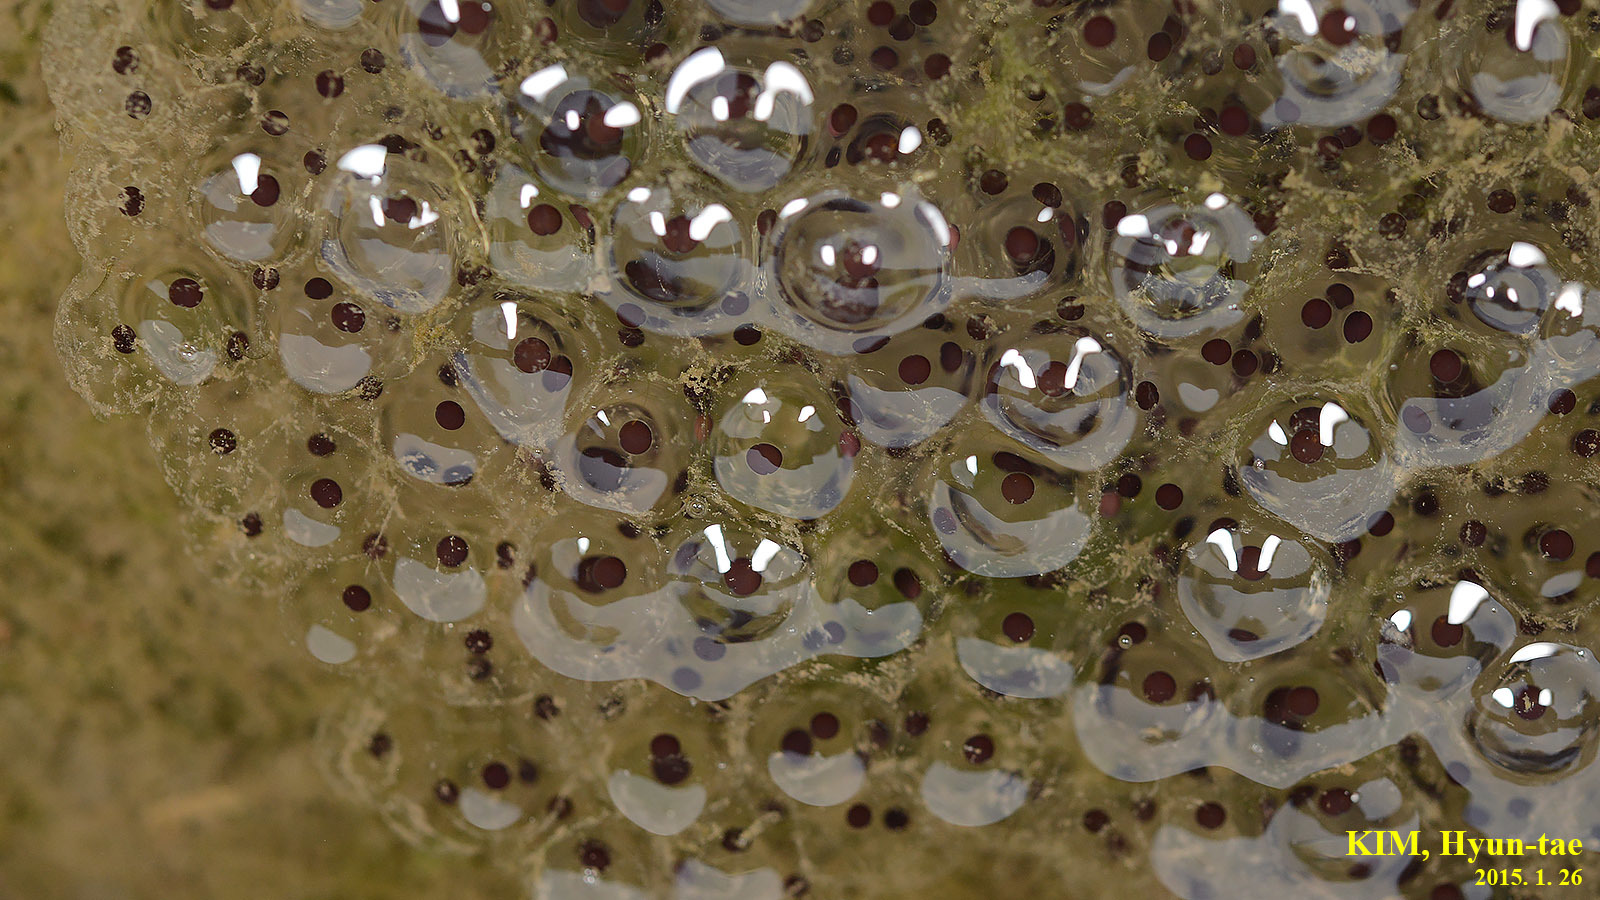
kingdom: Animalia
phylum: Chordata
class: Amphibia
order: Anura
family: Ranidae
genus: Rana
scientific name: Rana uenoi
